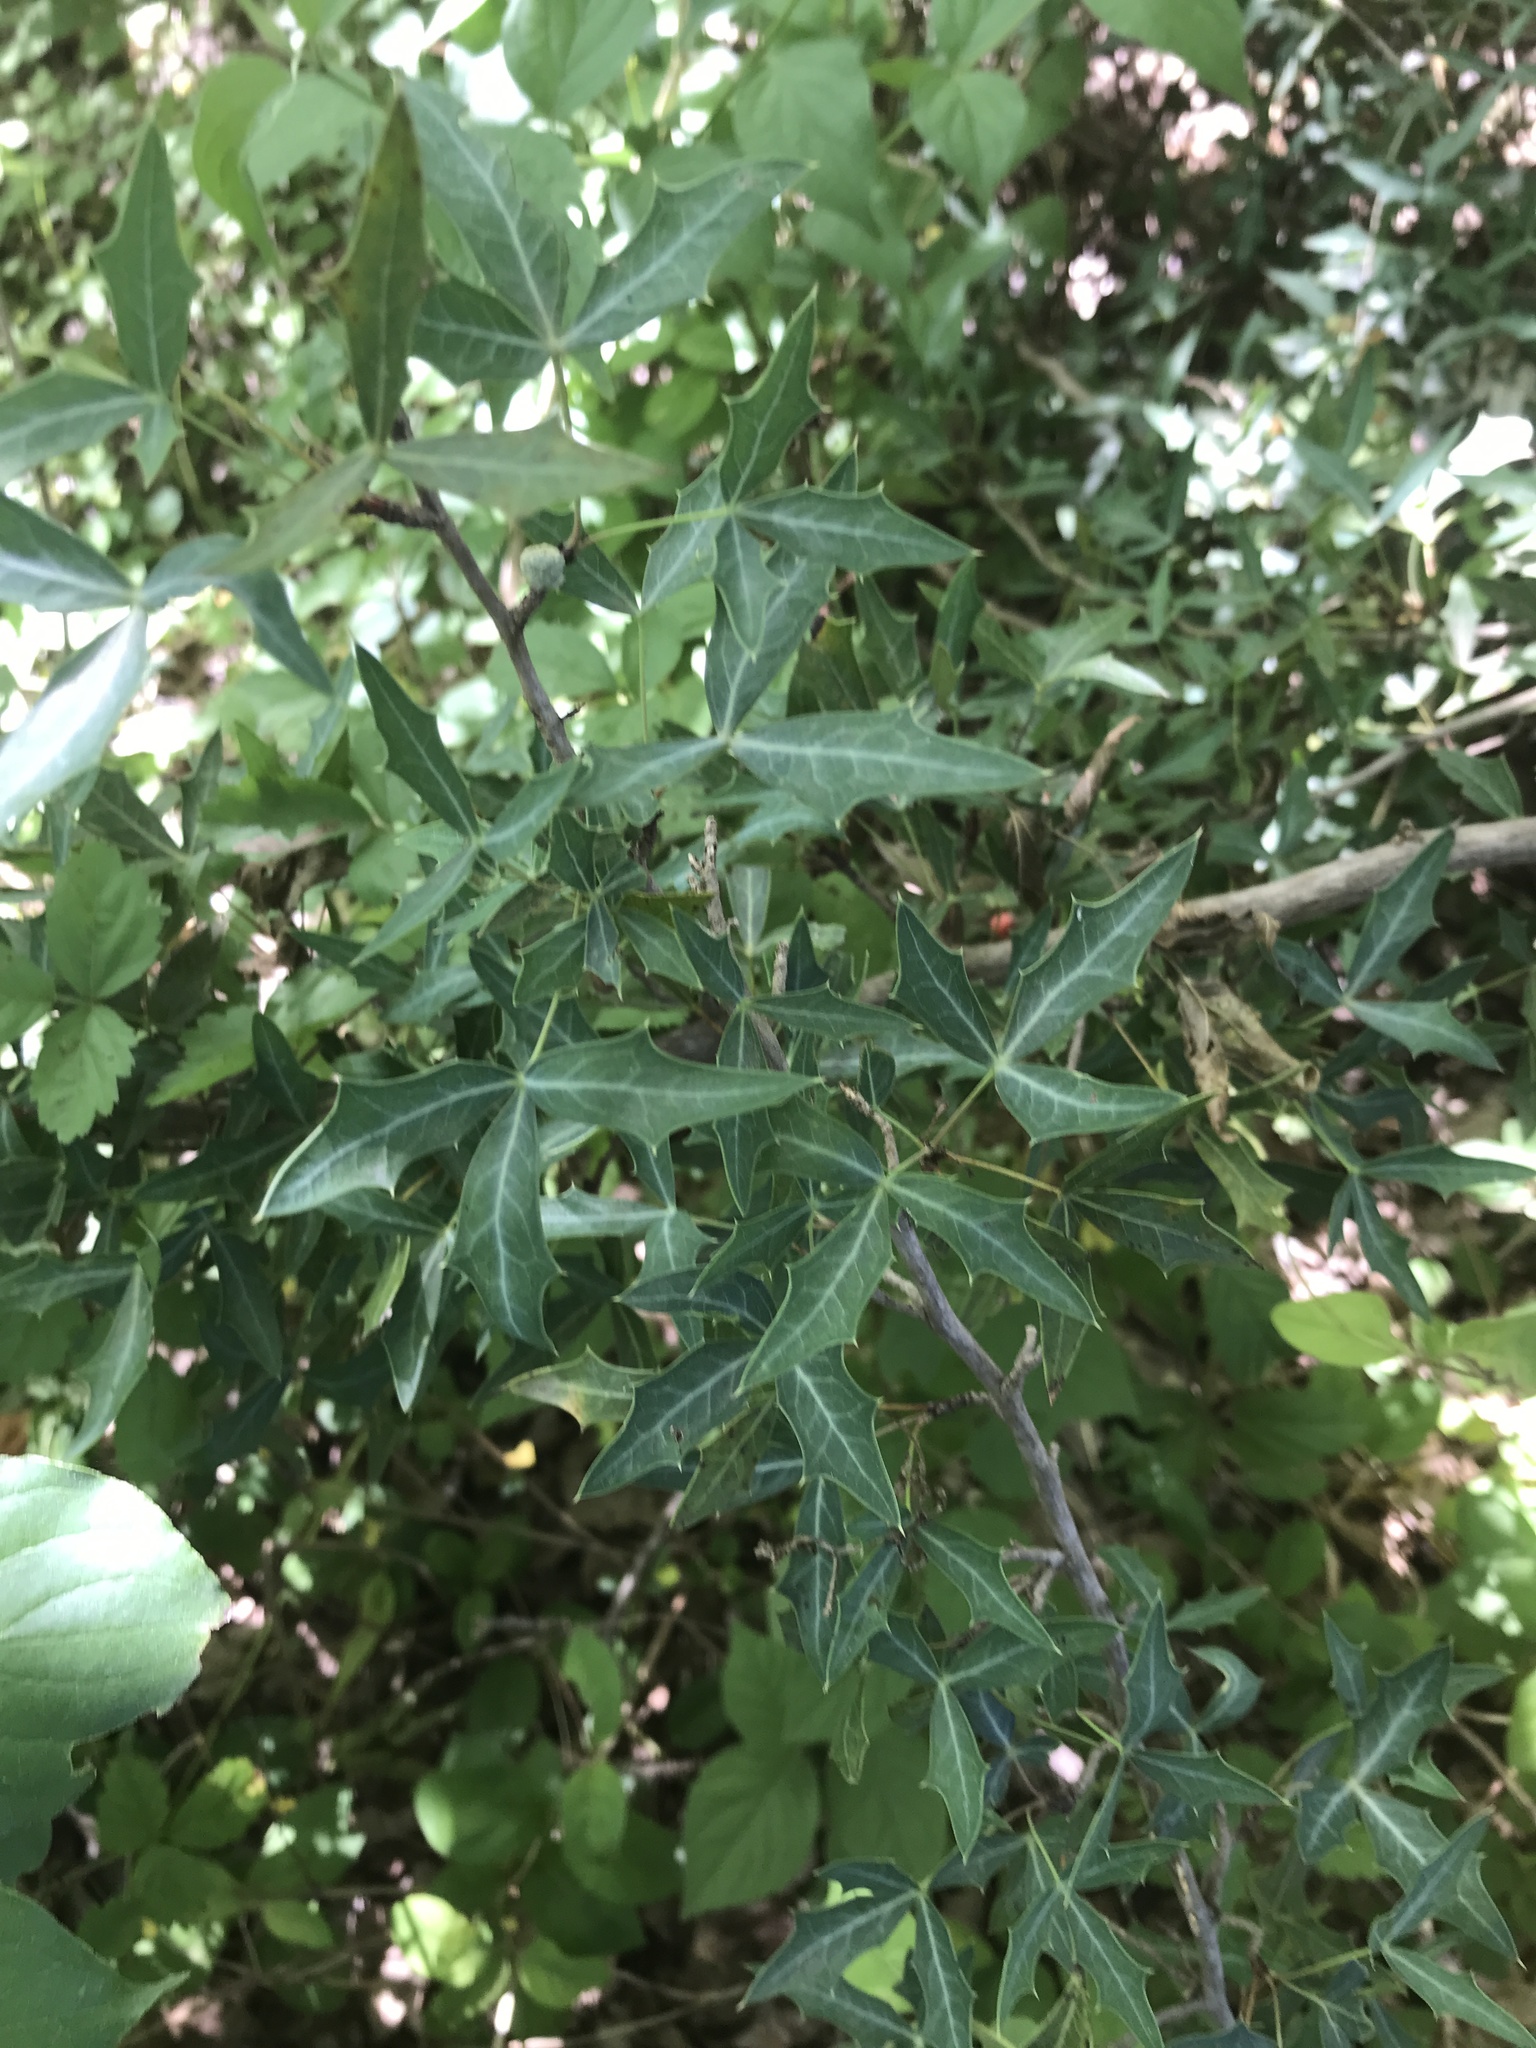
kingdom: Plantae
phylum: Tracheophyta
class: Magnoliopsida
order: Ranunculales
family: Berberidaceae
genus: Alloberberis
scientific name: Alloberberis trifoliolata
